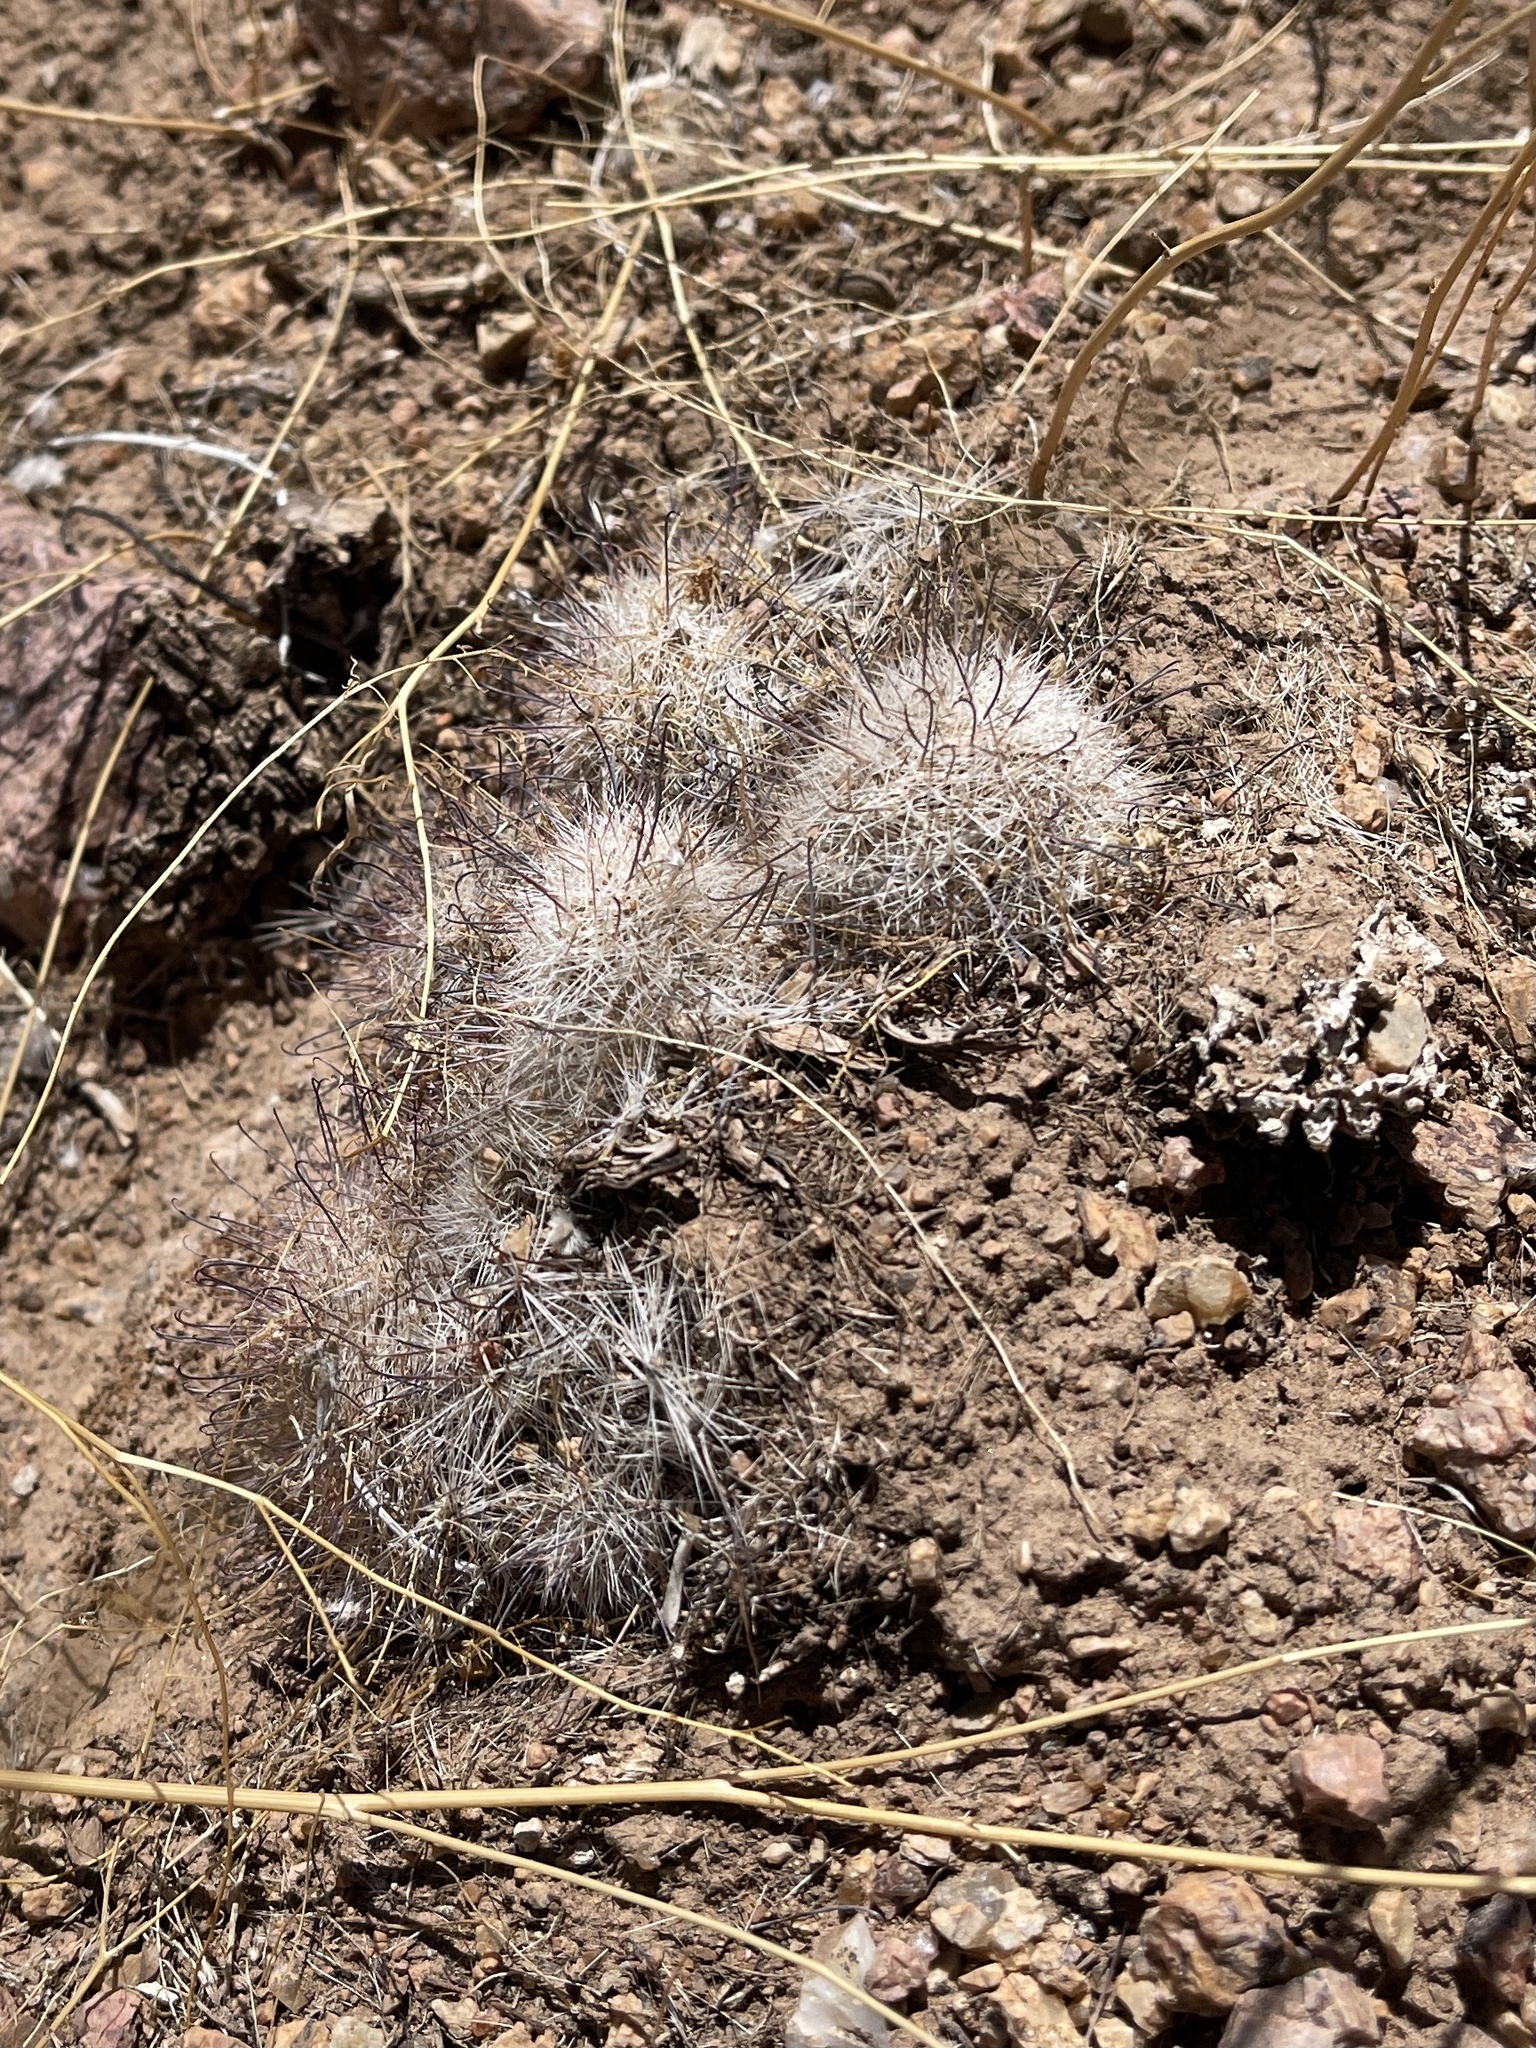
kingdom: Plantae
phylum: Tracheophyta
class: Magnoliopsida
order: Caryophyllales
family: Cactaceae
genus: Cochemiea
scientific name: Cochemiea grahamii
